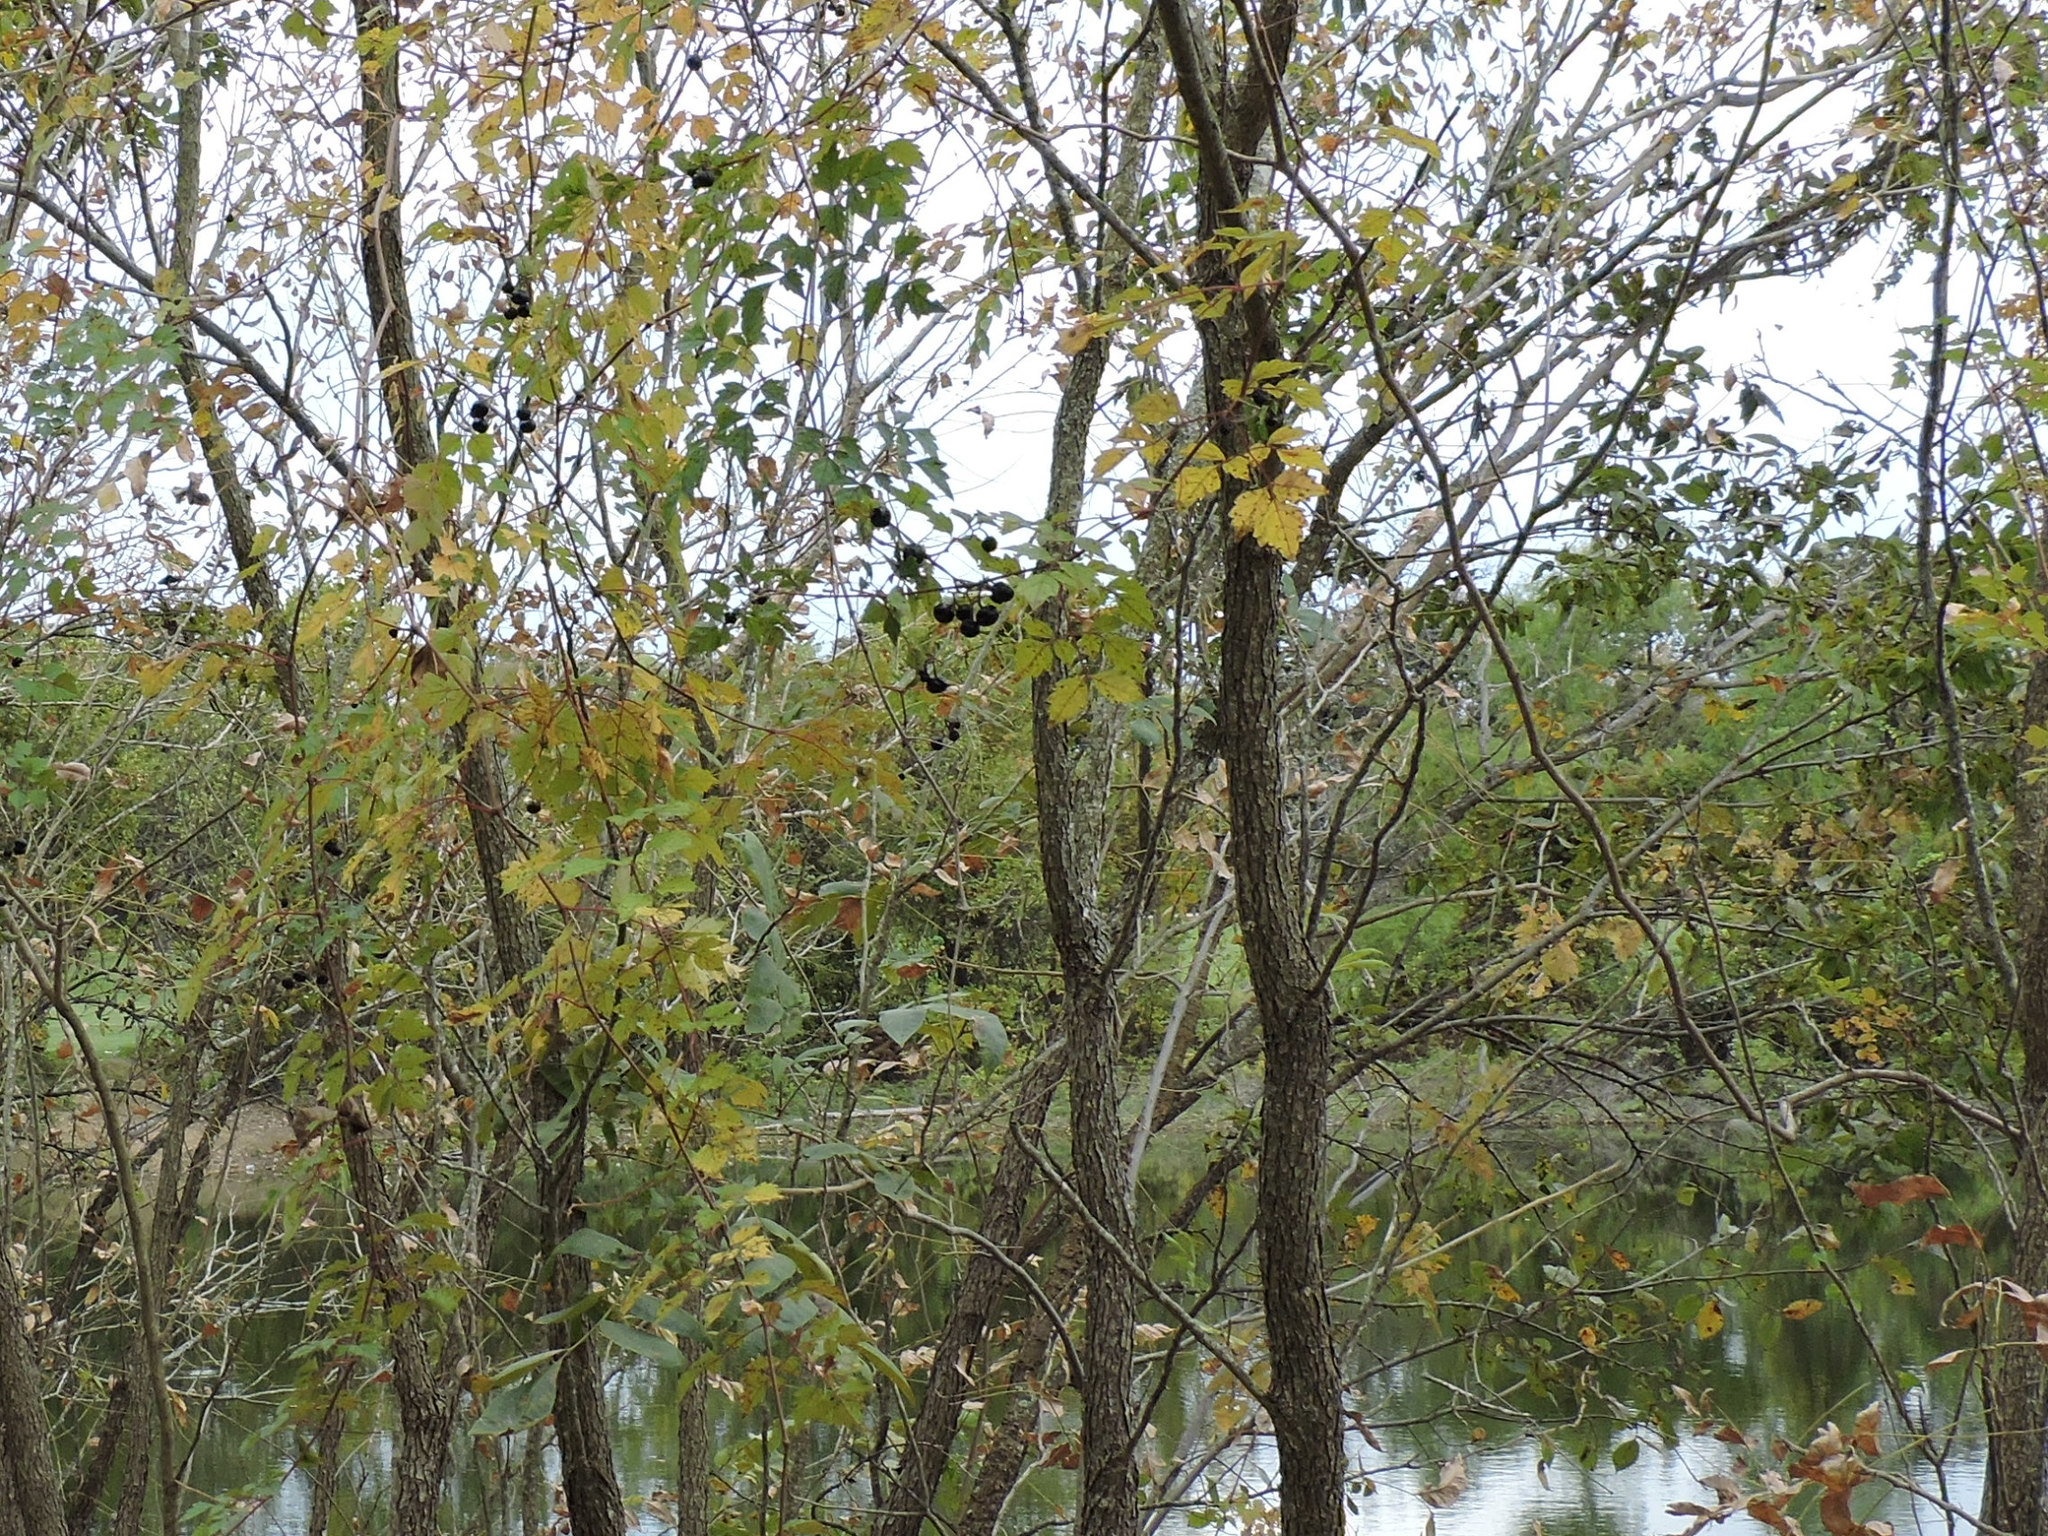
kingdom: Plantae
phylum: Tracheophyta
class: Magnoliopsida
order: Vitales
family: Vitaceae
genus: Nekemias
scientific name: Nekemias arborea
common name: Peppervine
